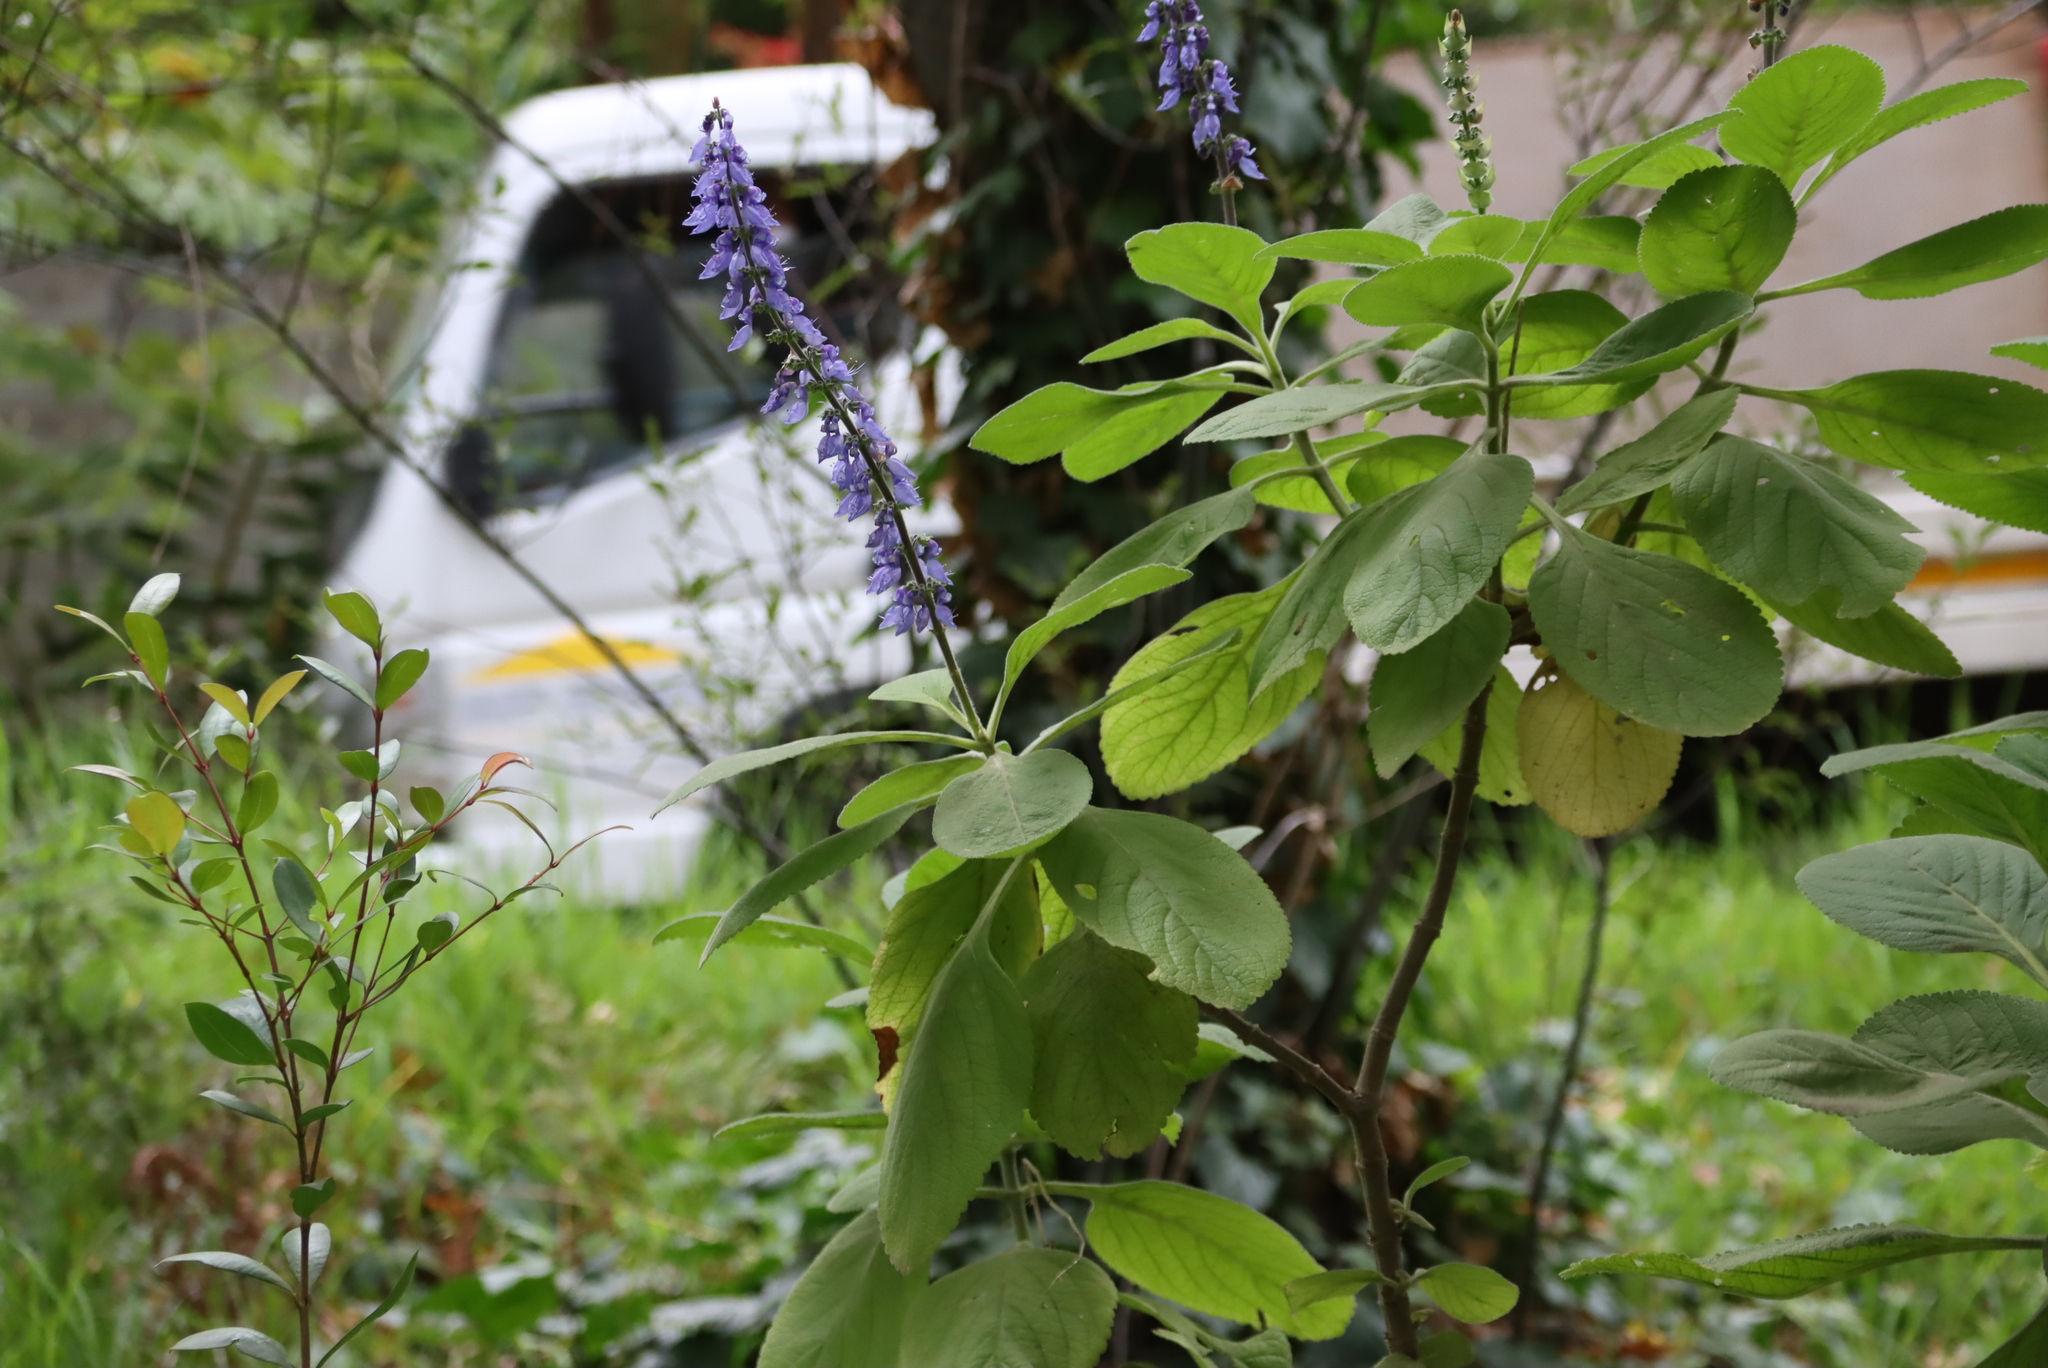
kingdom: Plantae
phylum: Tracheophyta
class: Magnoliopsida
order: Lamiales
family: Lamiaceae
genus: Coleus
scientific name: Coleus barbatus
